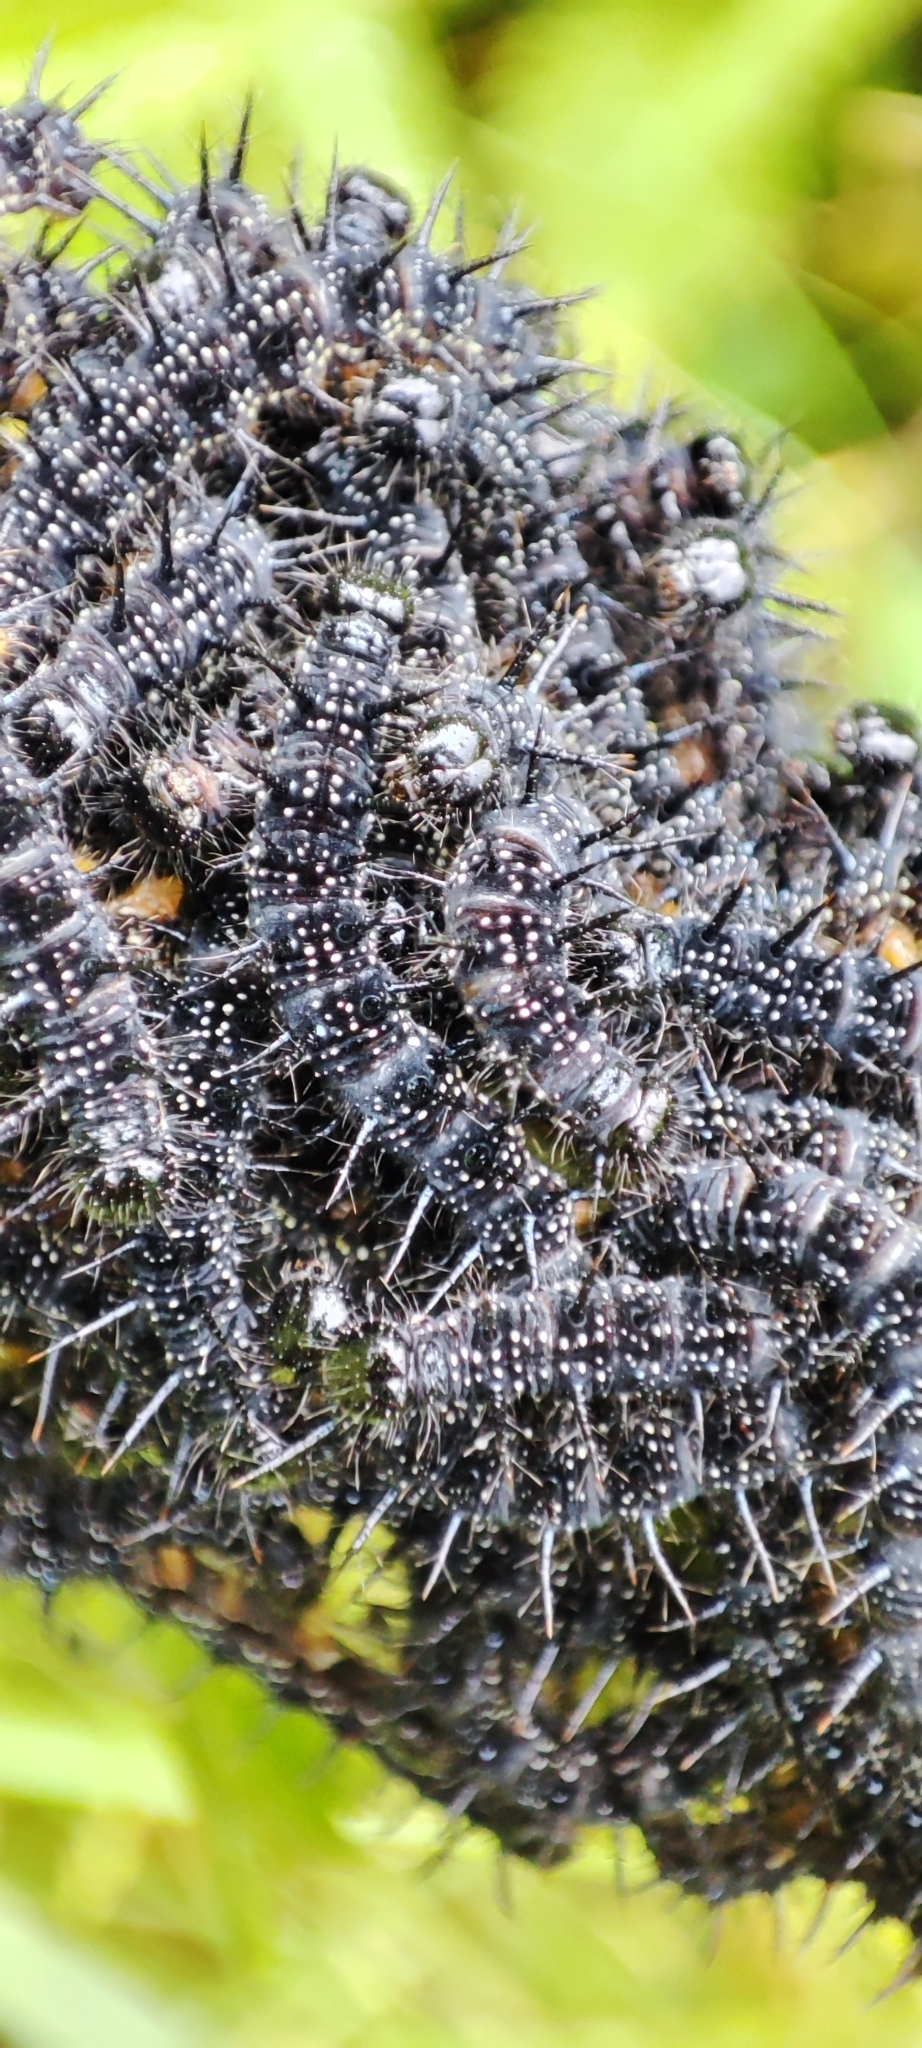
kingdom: Animalia
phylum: Arthropoda
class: Insecta
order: Lepidoptera
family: Nymphalidae
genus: Aglais
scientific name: Aglais io
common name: Peacock
